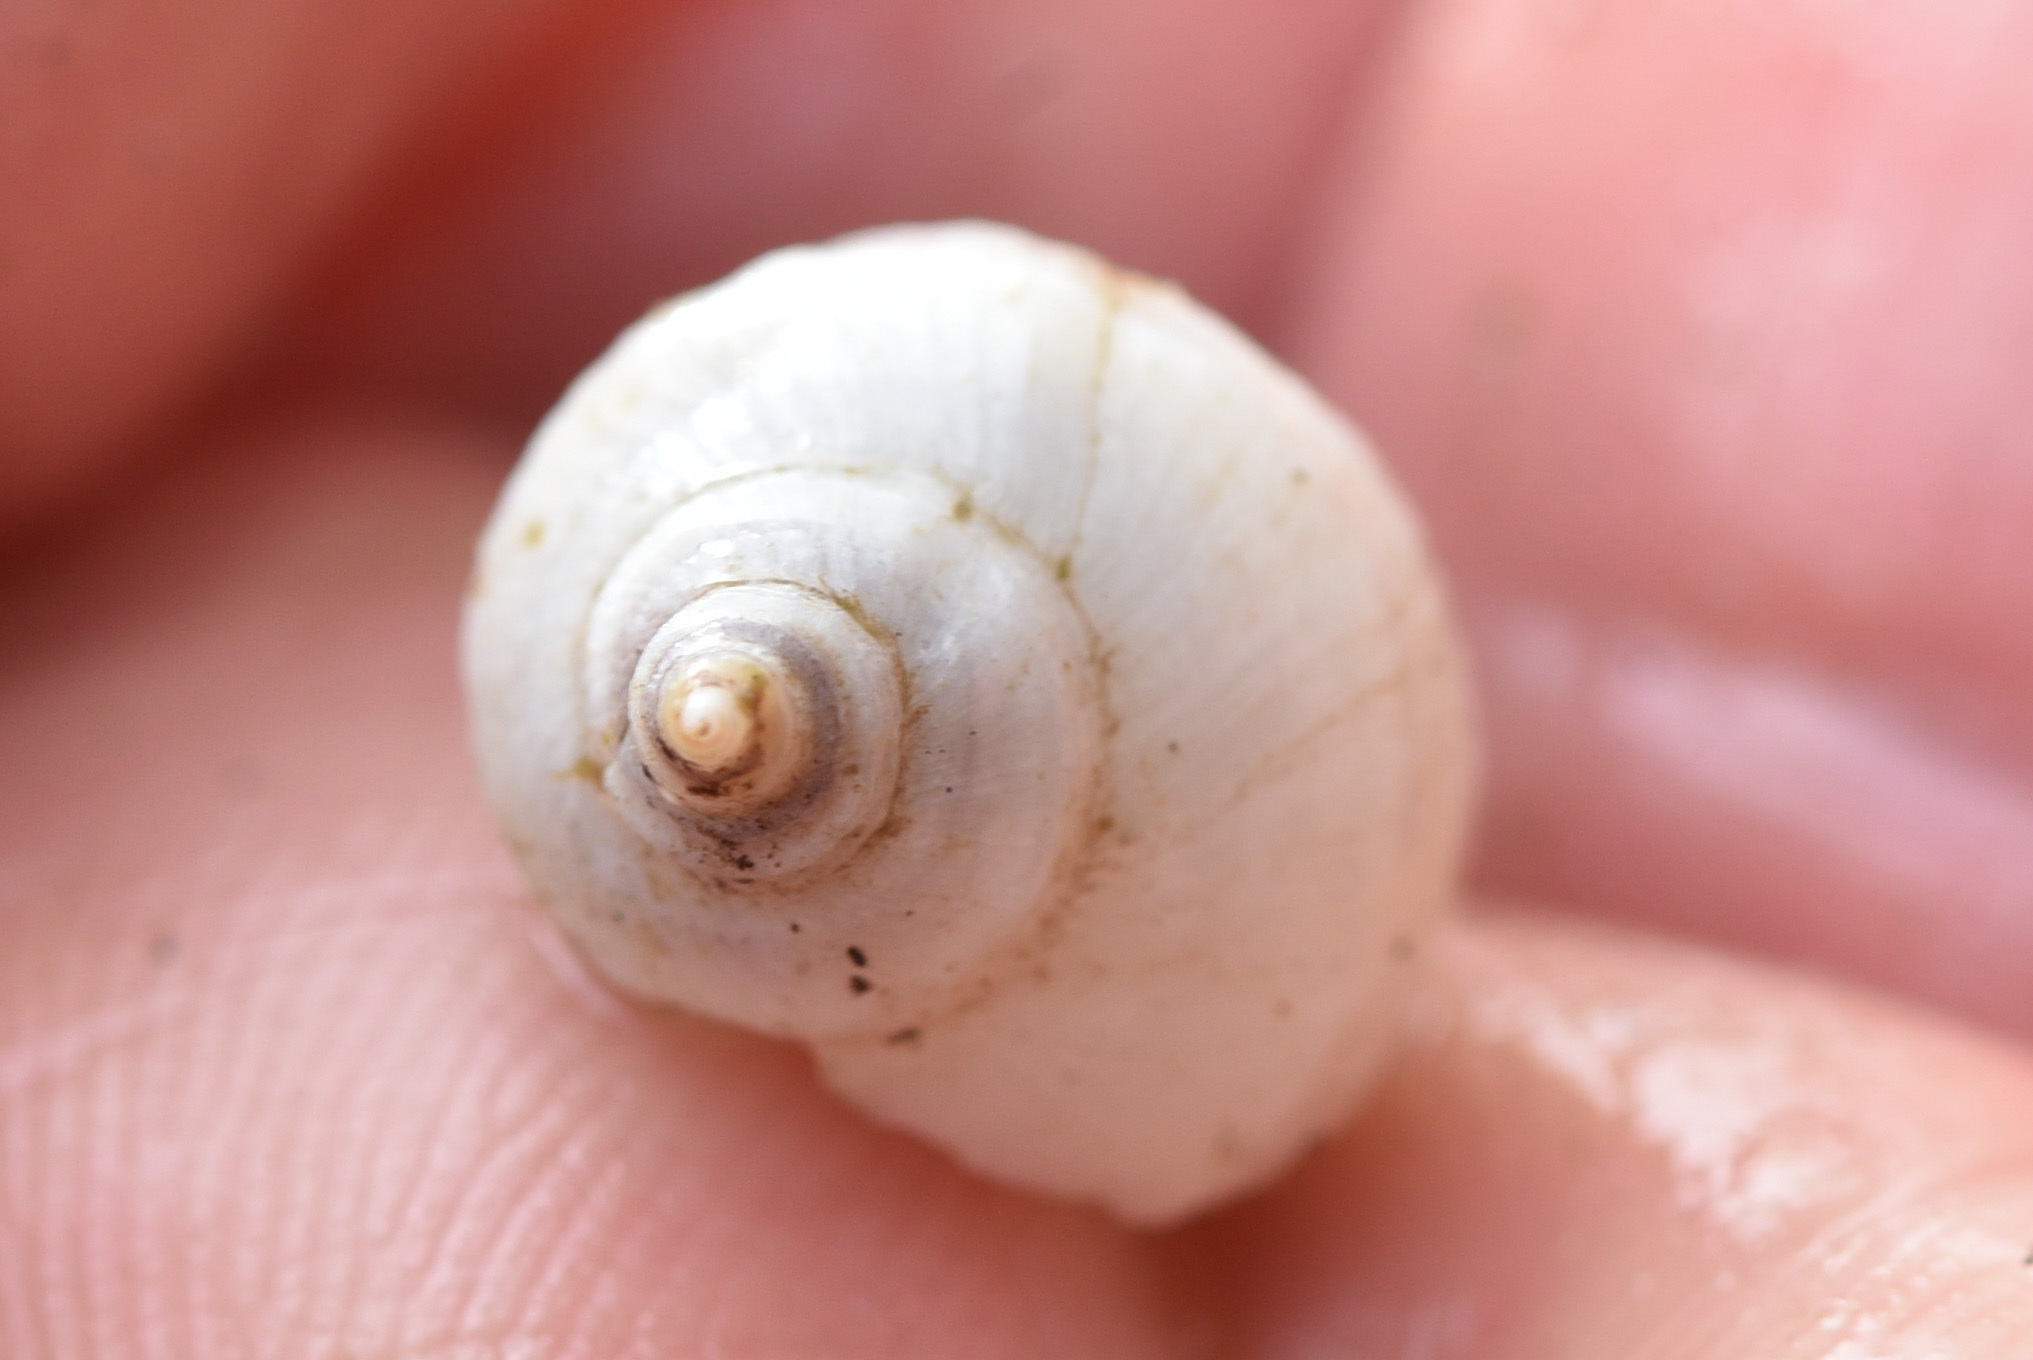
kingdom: Animalia
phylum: Mollusca
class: Gastropoda
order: Neogastropoda
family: Muricidae
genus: Nucella
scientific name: Nucella lamellosa
